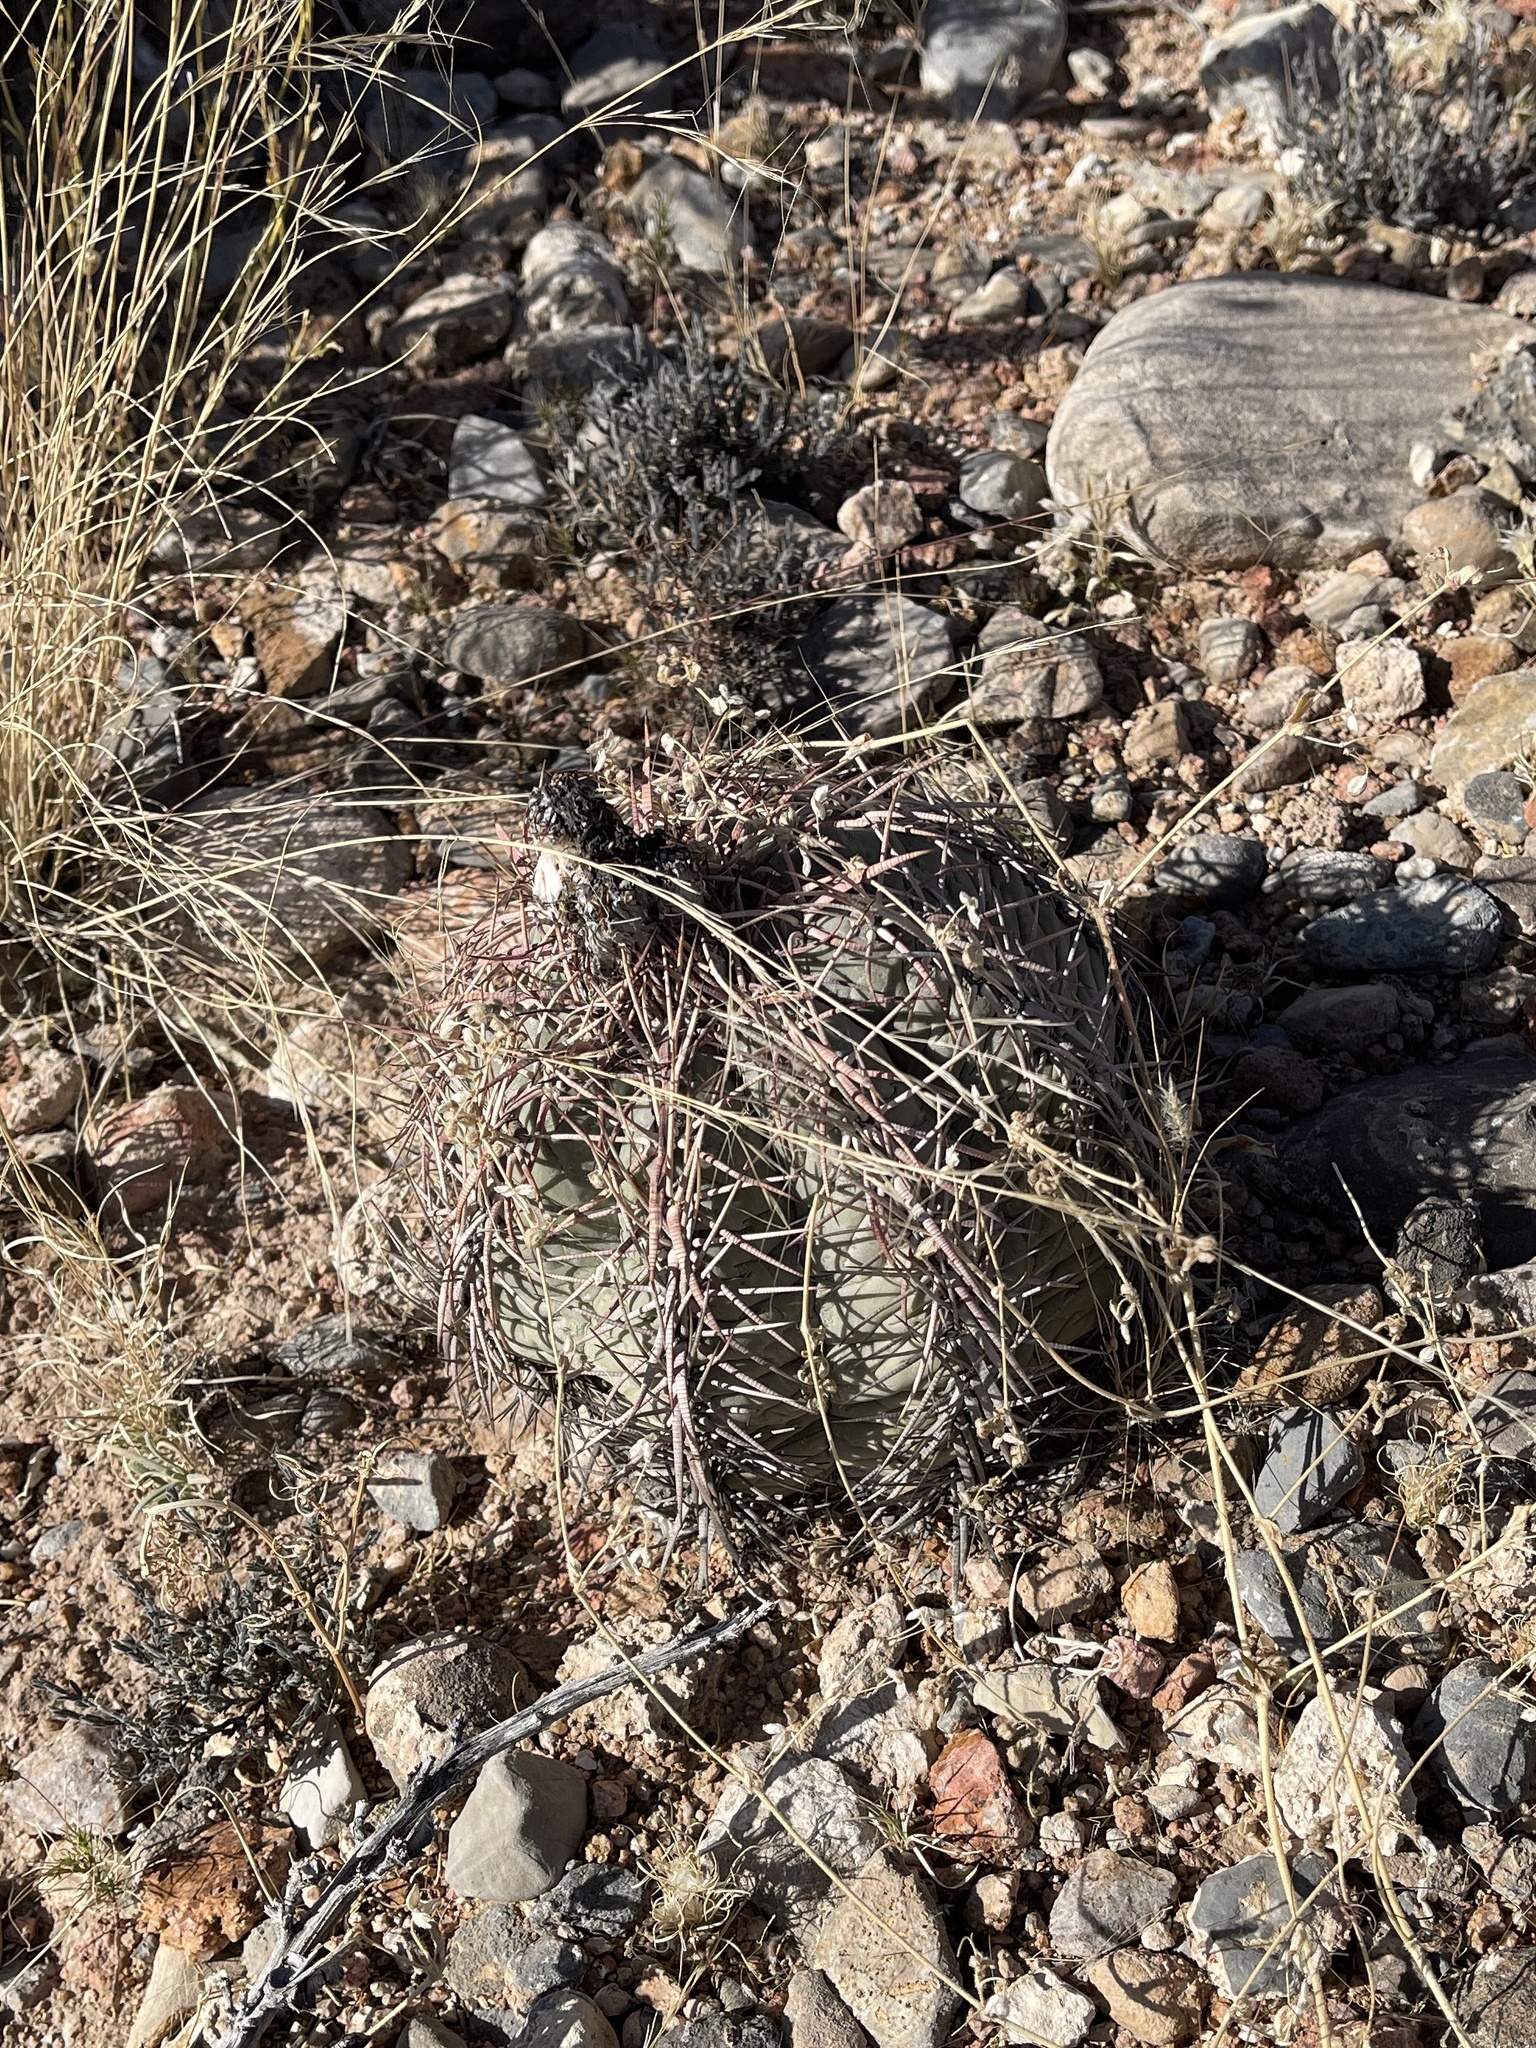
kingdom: Plantae
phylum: Tracheophyta
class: Magnoliopsida
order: Caryophyllales
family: Cactaceae
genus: Echinocactus
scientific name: Echinocactus horizonthalonius
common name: Devilshead
